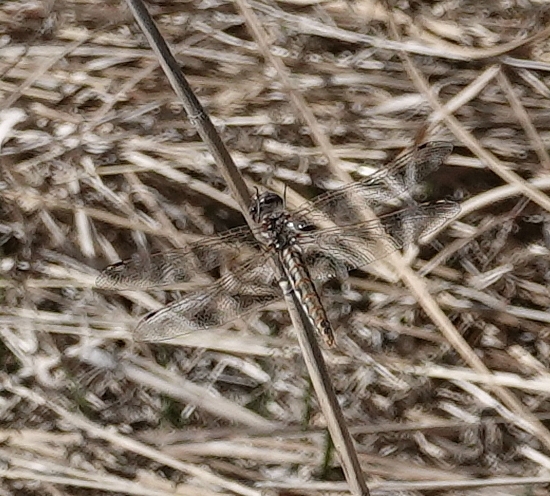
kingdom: Animalia
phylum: Arthropoda
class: Insecta
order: Odonata
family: Libellulidae
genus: Sympetrum
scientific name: Sympetrum corruptum
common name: Variegated meadowhawk
